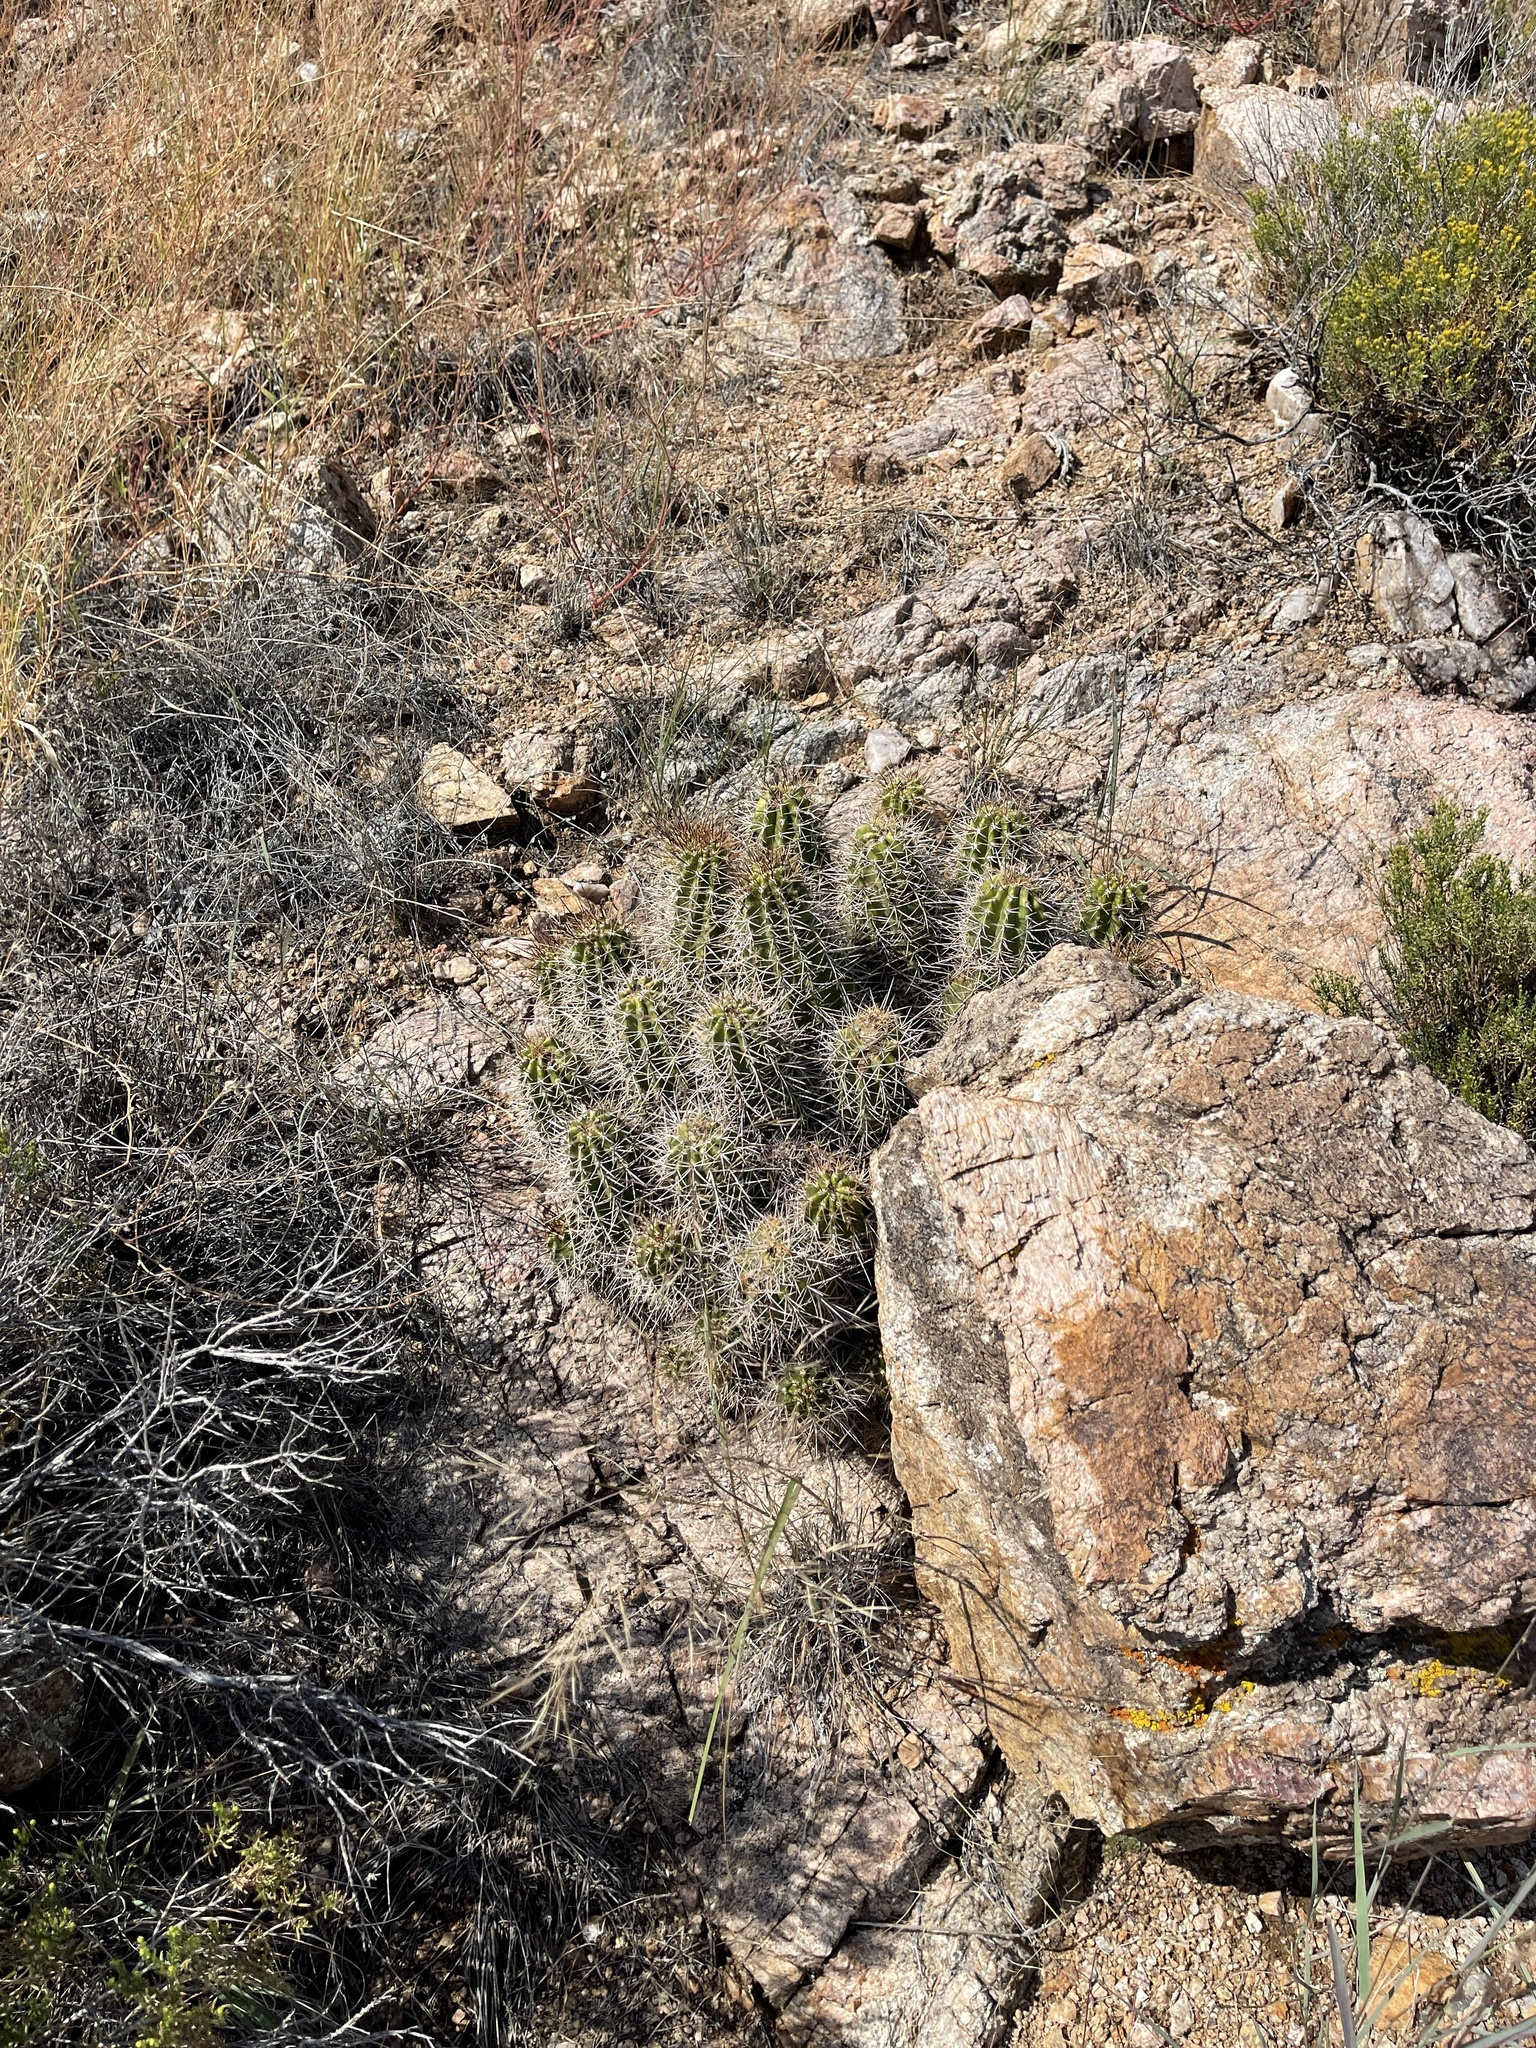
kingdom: Plantae
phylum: Tracheophyta
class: Magnoliopsida
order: Caryophyllales
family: Cactaceae
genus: Echinocereus
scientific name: Echinocereus bakeri
